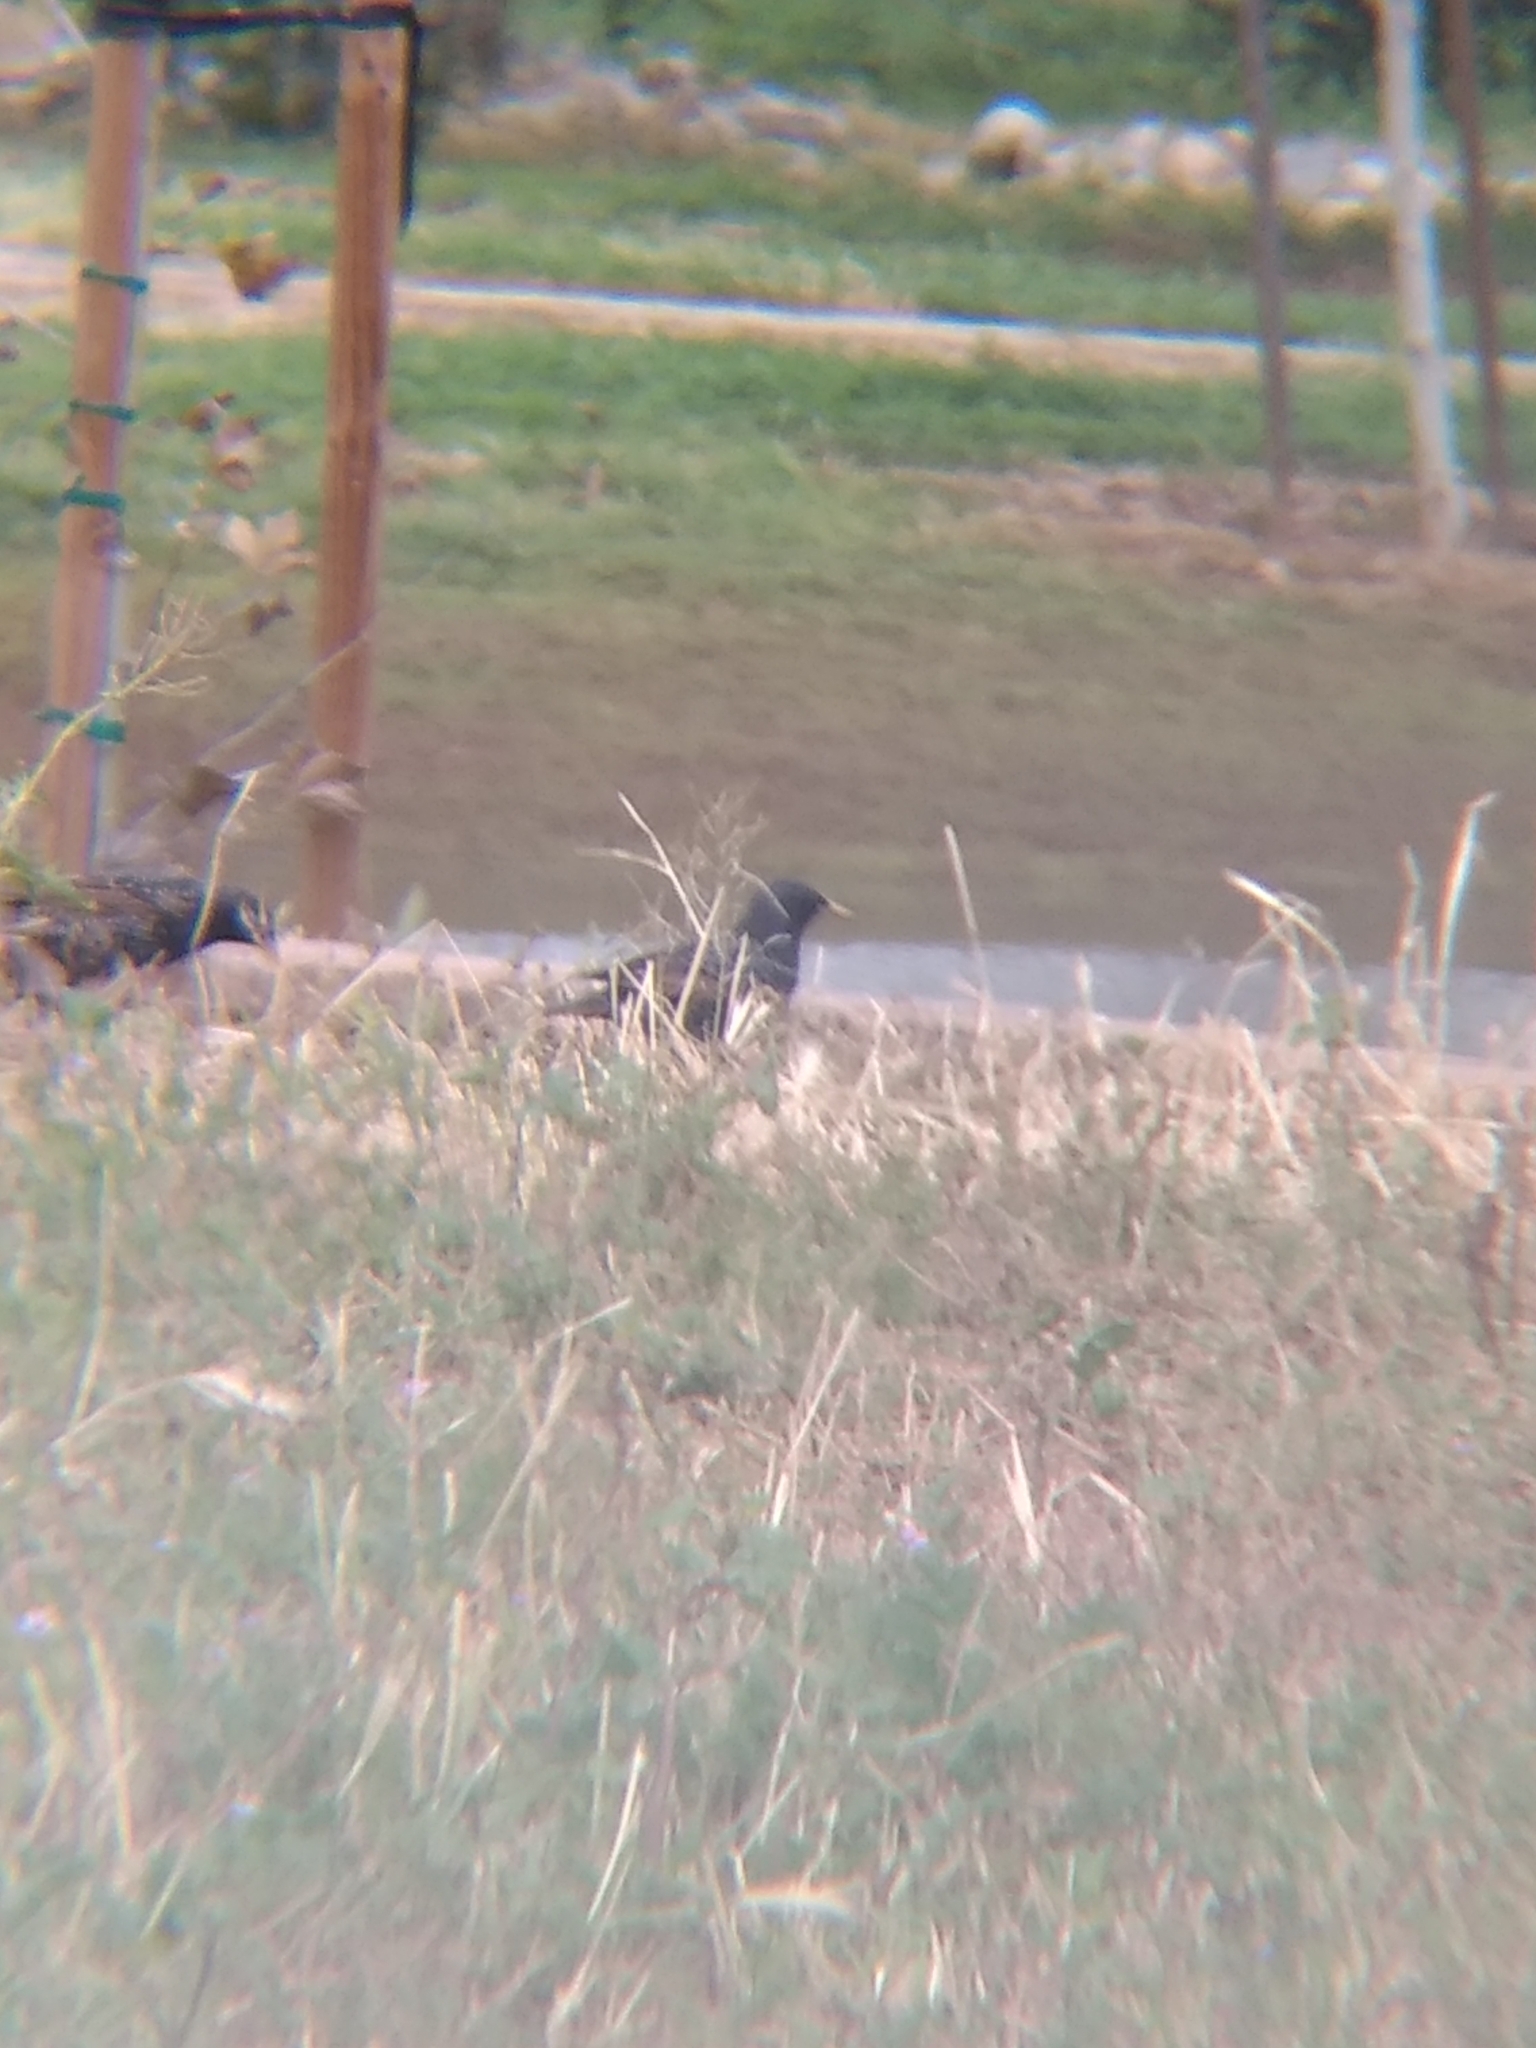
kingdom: Animalia
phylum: Chordata
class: Aves
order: Passeriformes
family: Sturnidae
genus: Sturnus
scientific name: Sturnus vulgaris
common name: Common starling
